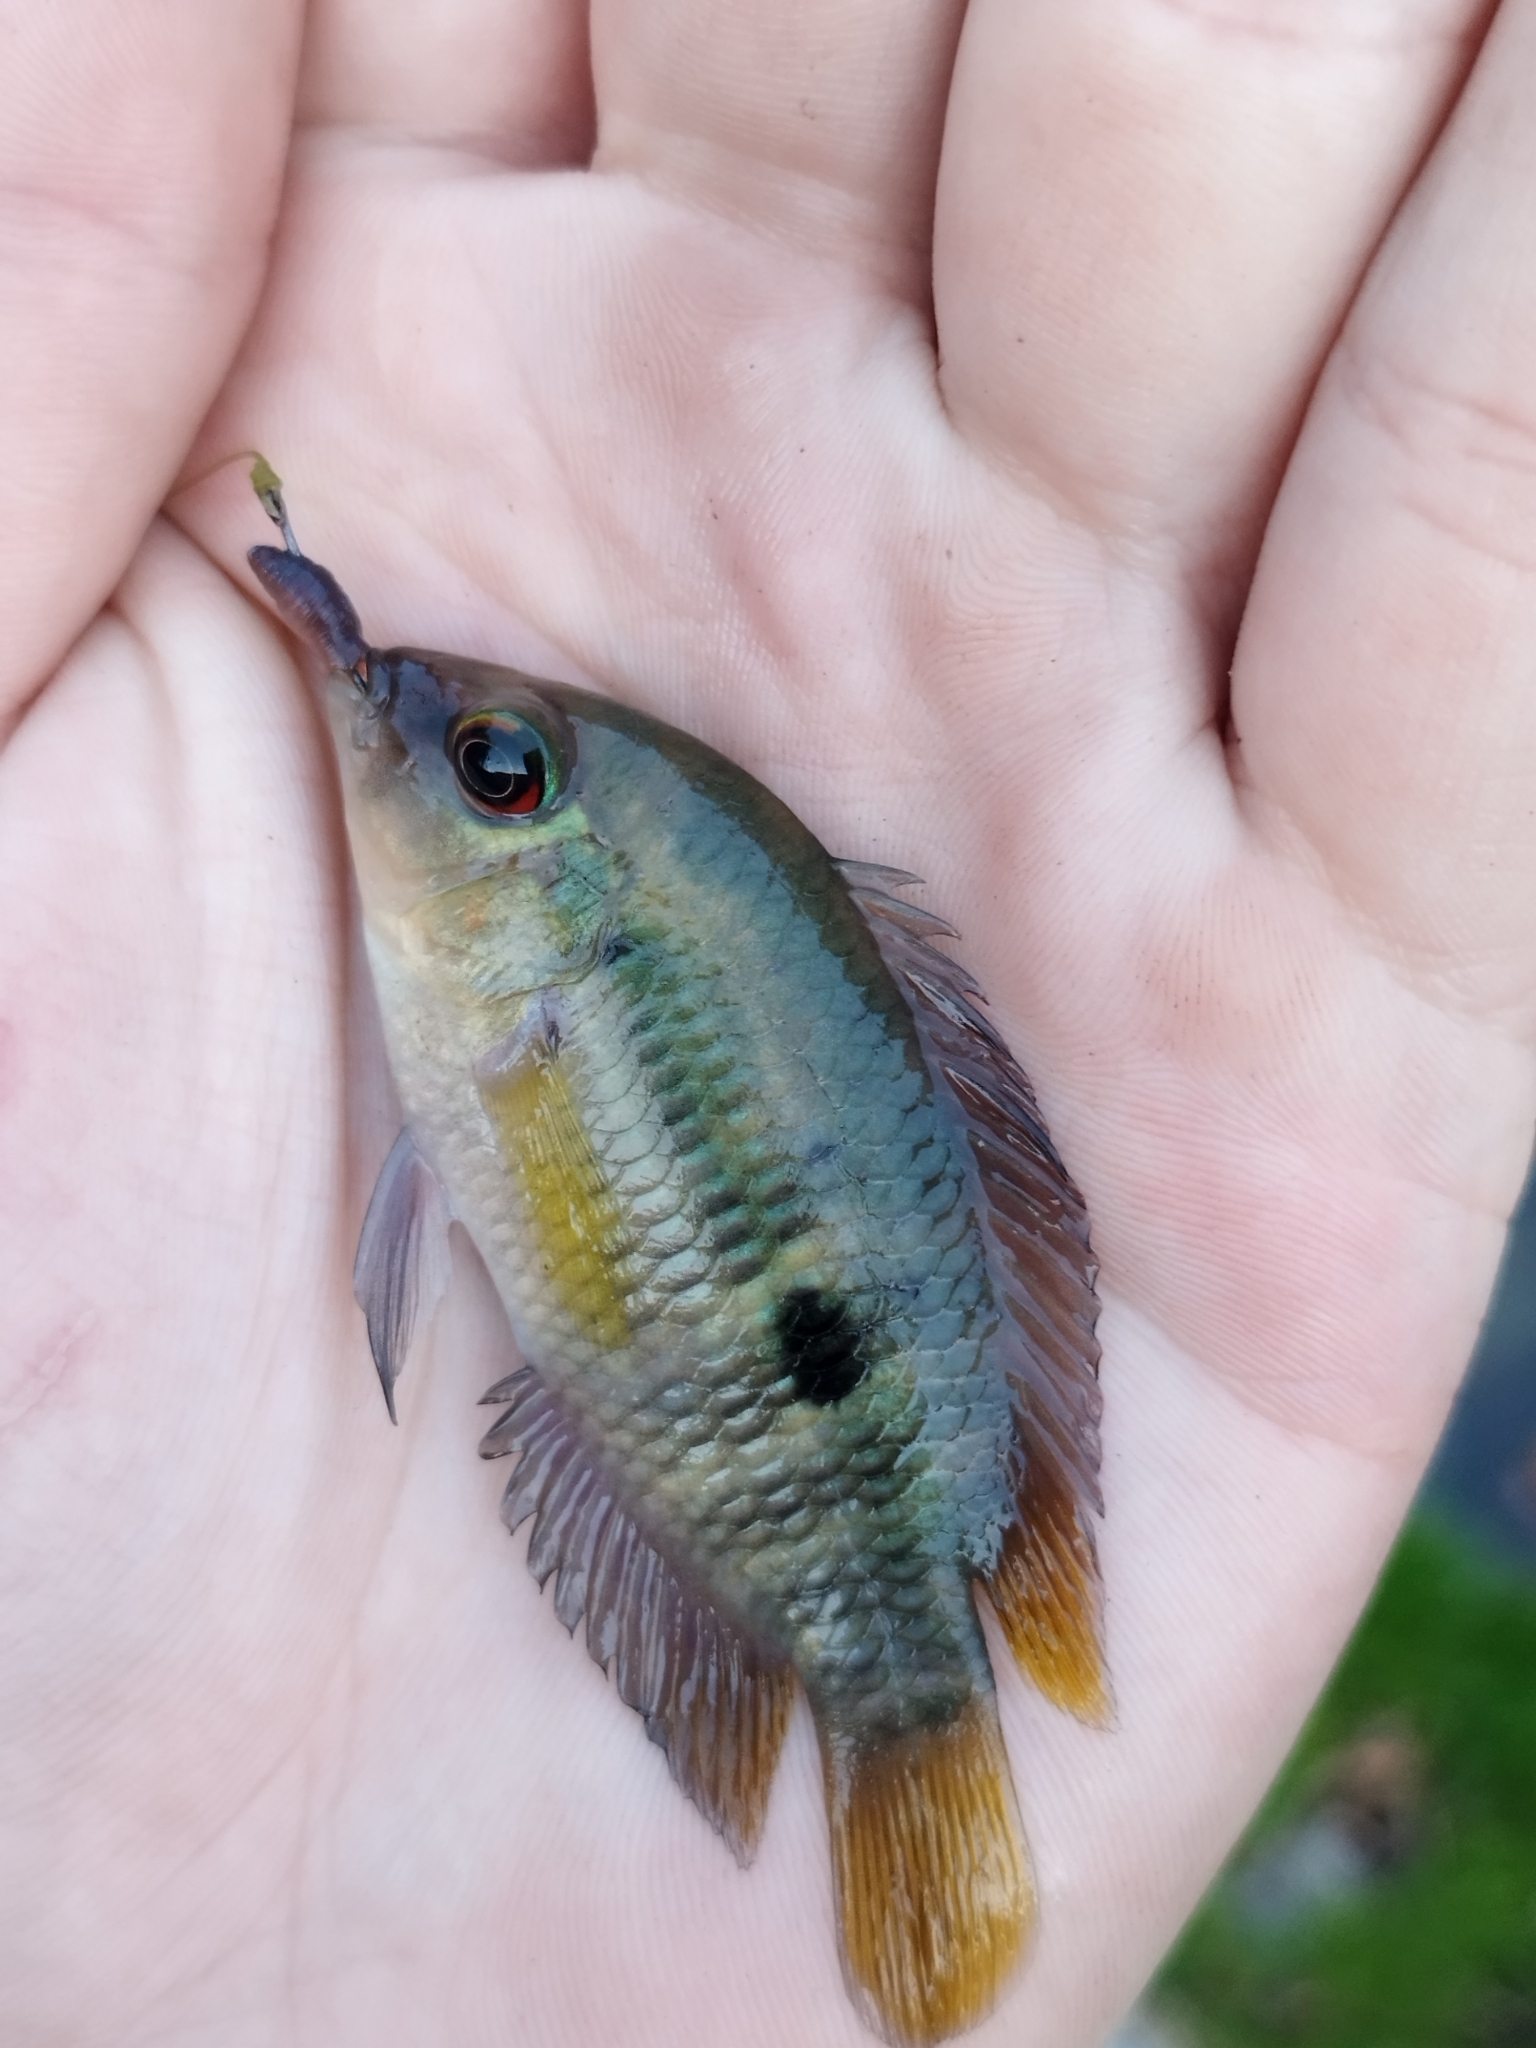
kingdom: Animalia
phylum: Chordata
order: Perciformes
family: Cichlidae
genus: Australoheros
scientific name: Australoheros facetus
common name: Chameleon cichlid
